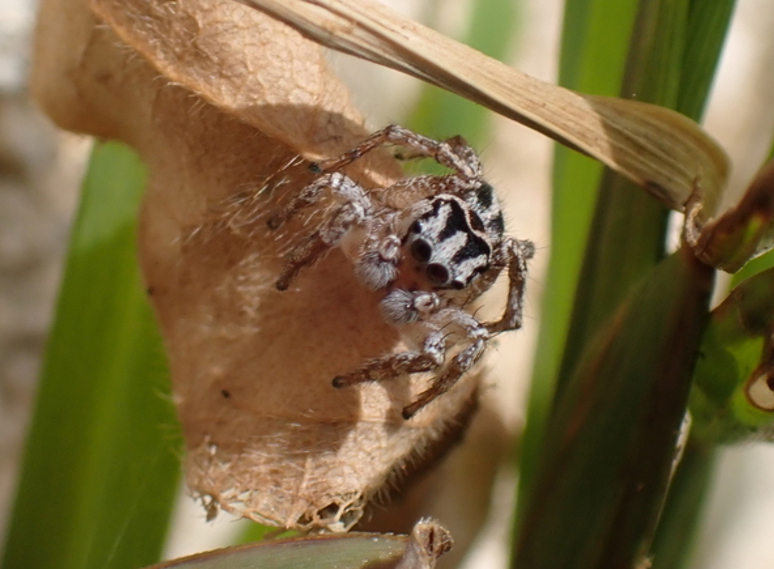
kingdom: Animalia
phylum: Arthropoda
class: Arachnida
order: Araneae
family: Salticidae
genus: Habronattus
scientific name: Habronattus trimaculatus
